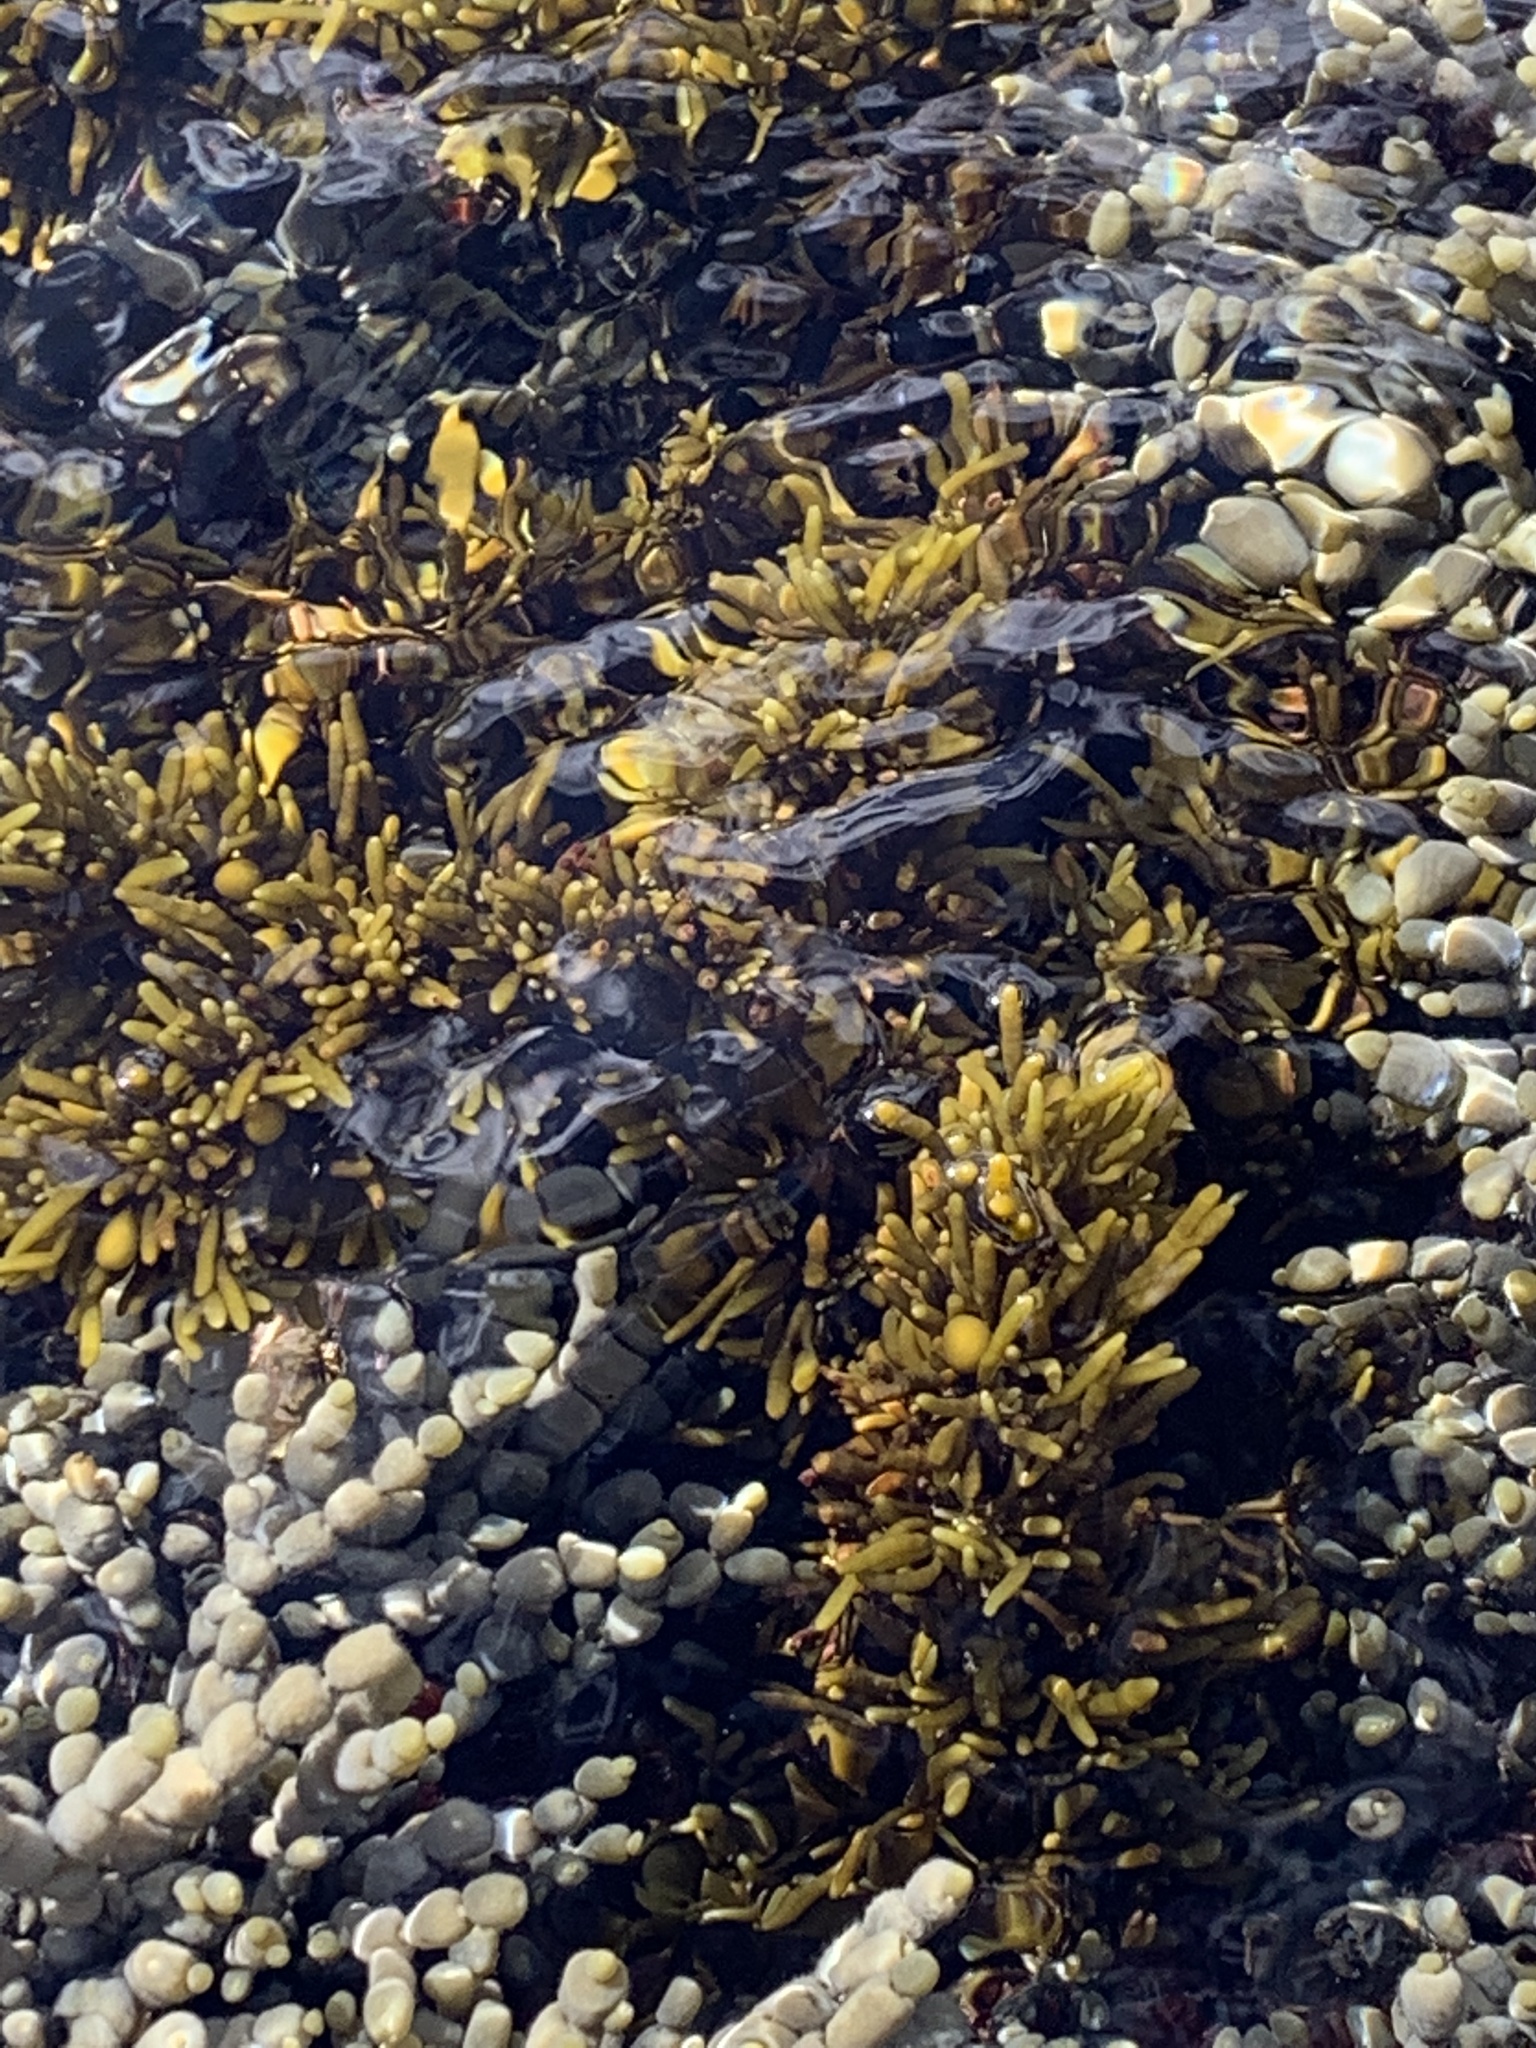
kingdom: Chromista
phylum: Ochrophyta
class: Phaeophyceae
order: Fucales
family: Sargassaceae
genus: Cystophora
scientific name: Cystophora torulosa
